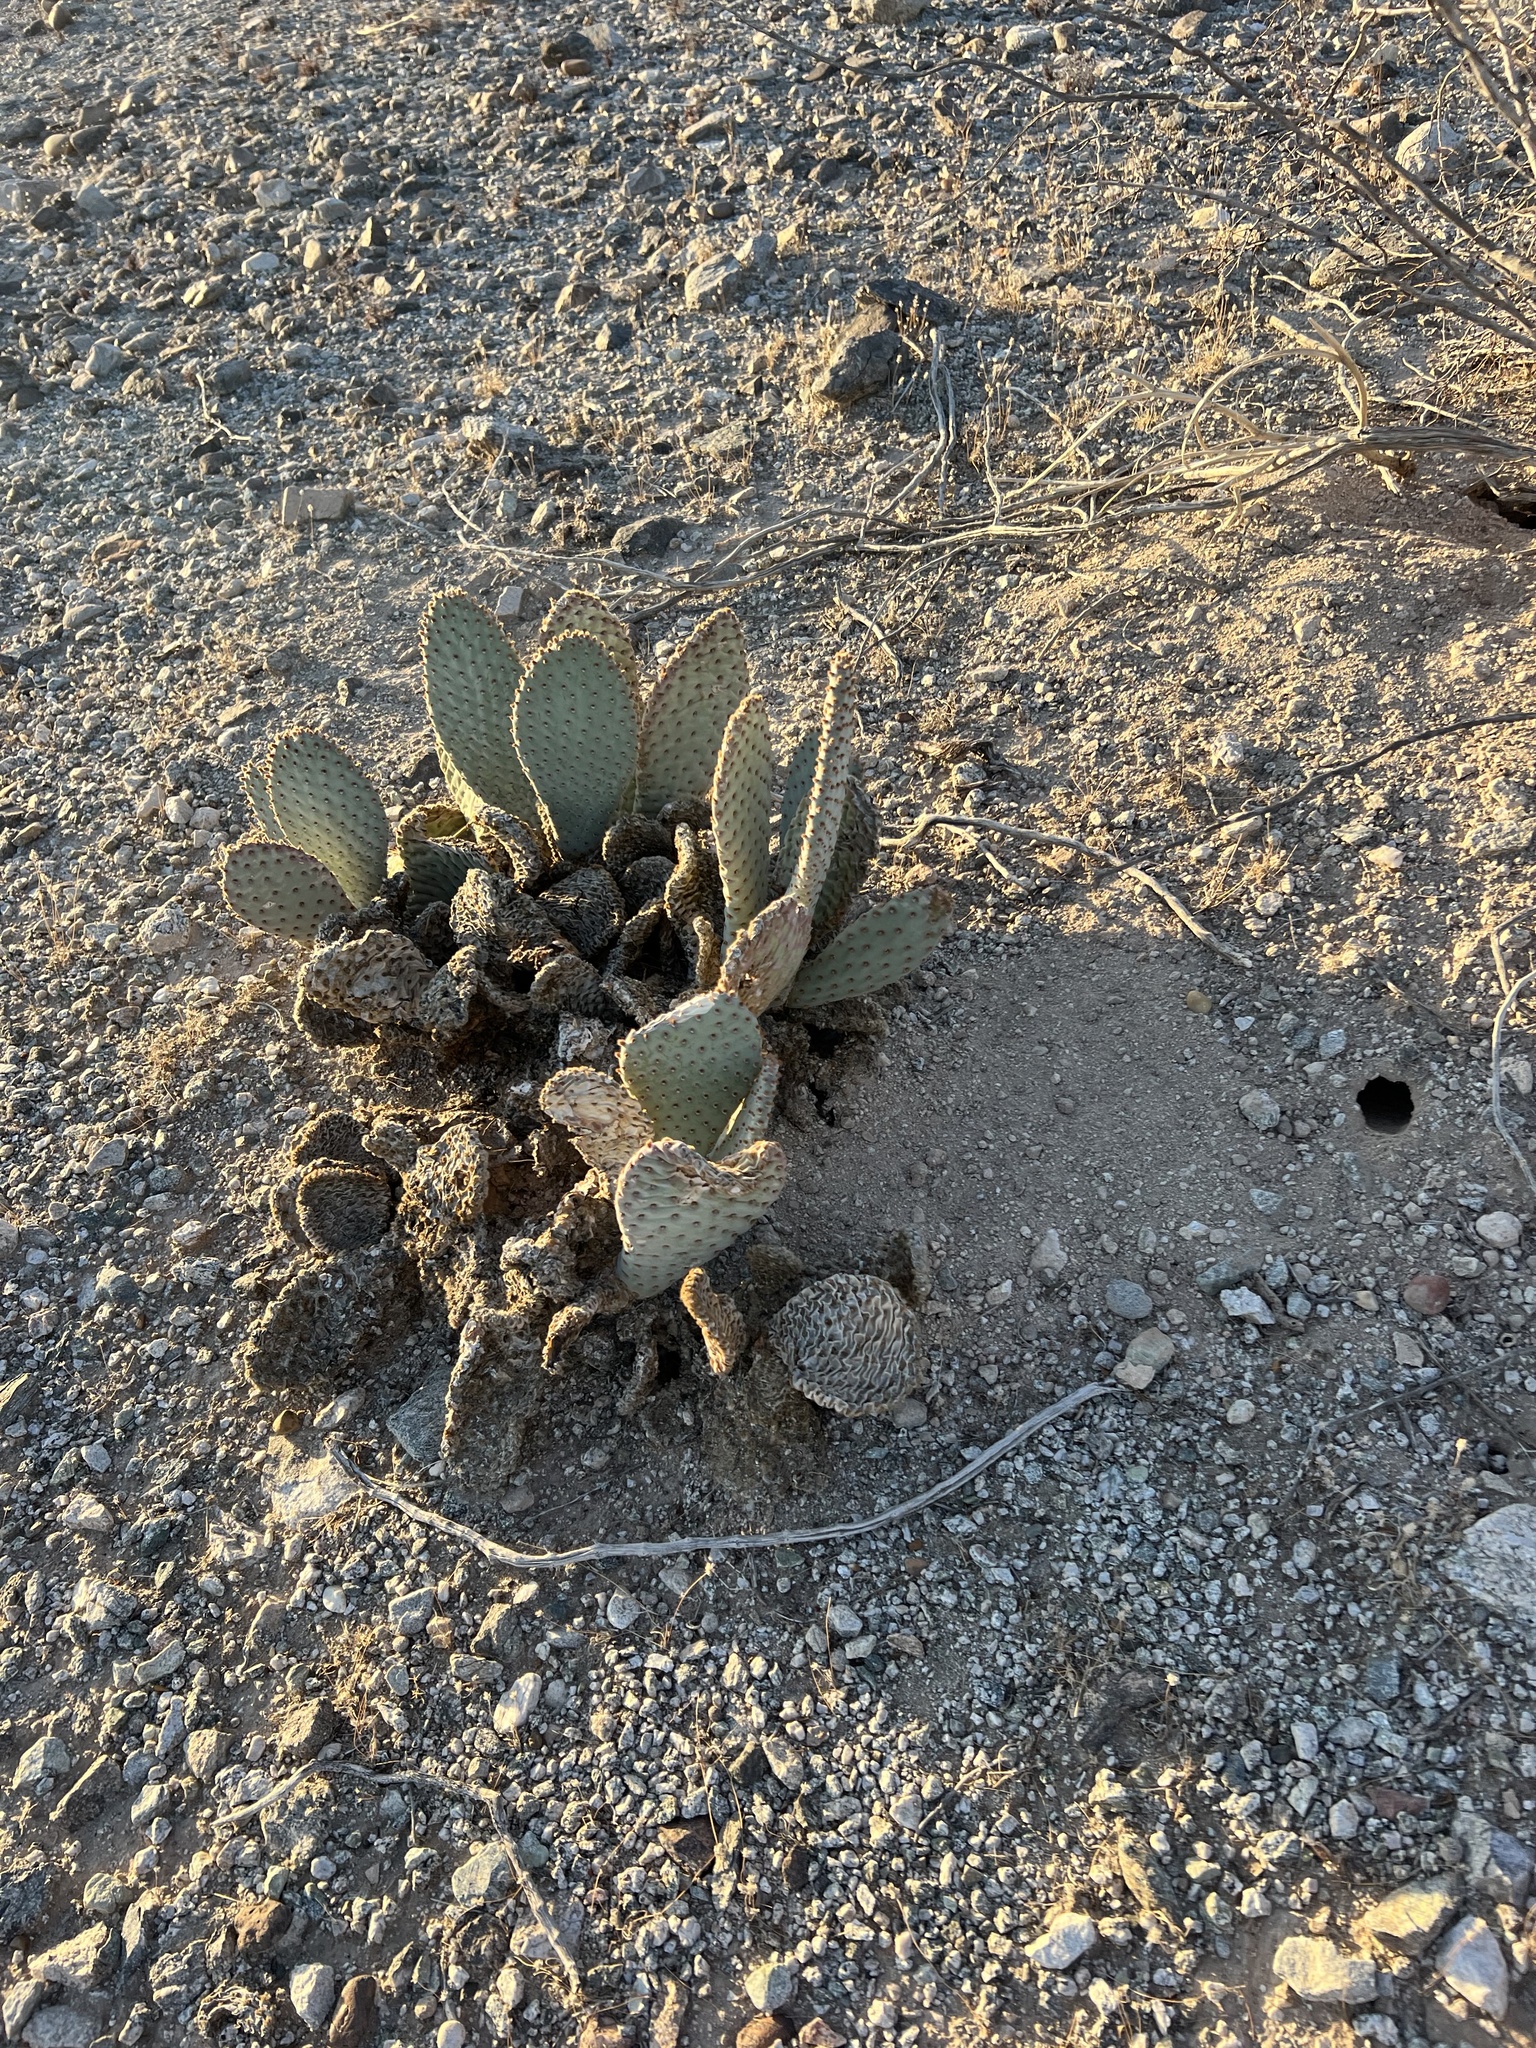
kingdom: Plantae
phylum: Tracheophyta
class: Magnoliopsida
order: Caryophyllales
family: Cactaceae
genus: Opuntia
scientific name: Opuntia basilaris
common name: Beavertail prickly-pear
